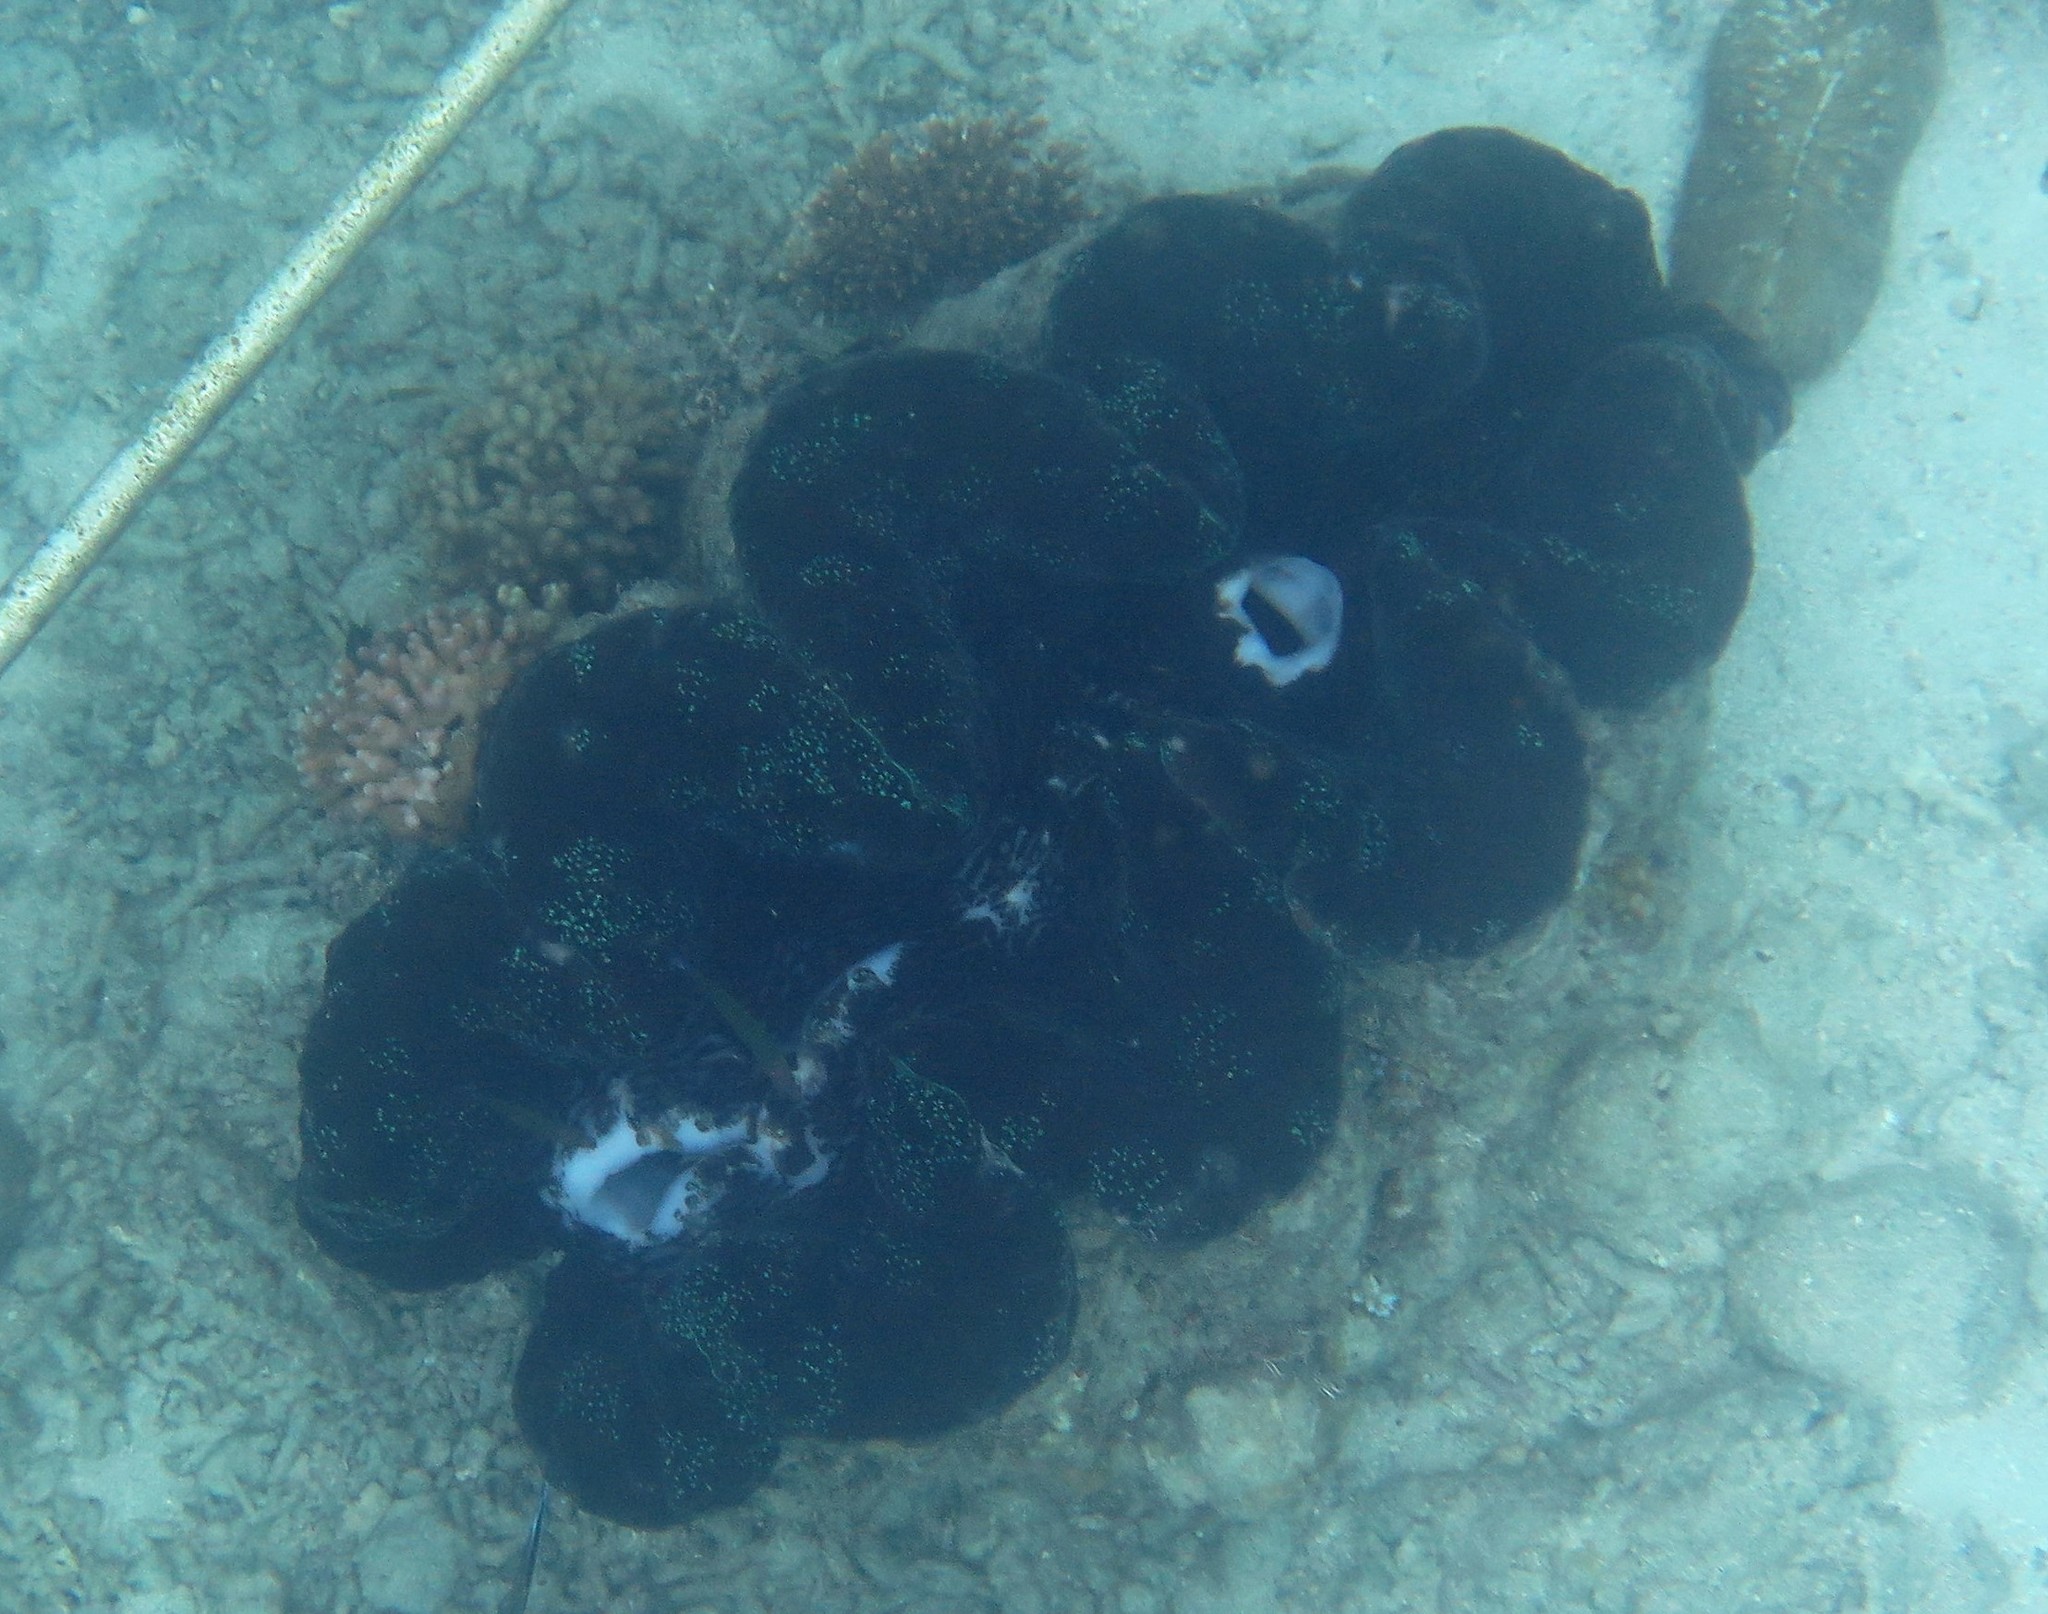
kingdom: Animalia
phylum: Mollusca
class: Bivalvia
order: Cardiida
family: Cardiidae
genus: Tridacna
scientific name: Tridacna gigas
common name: Giant clam
